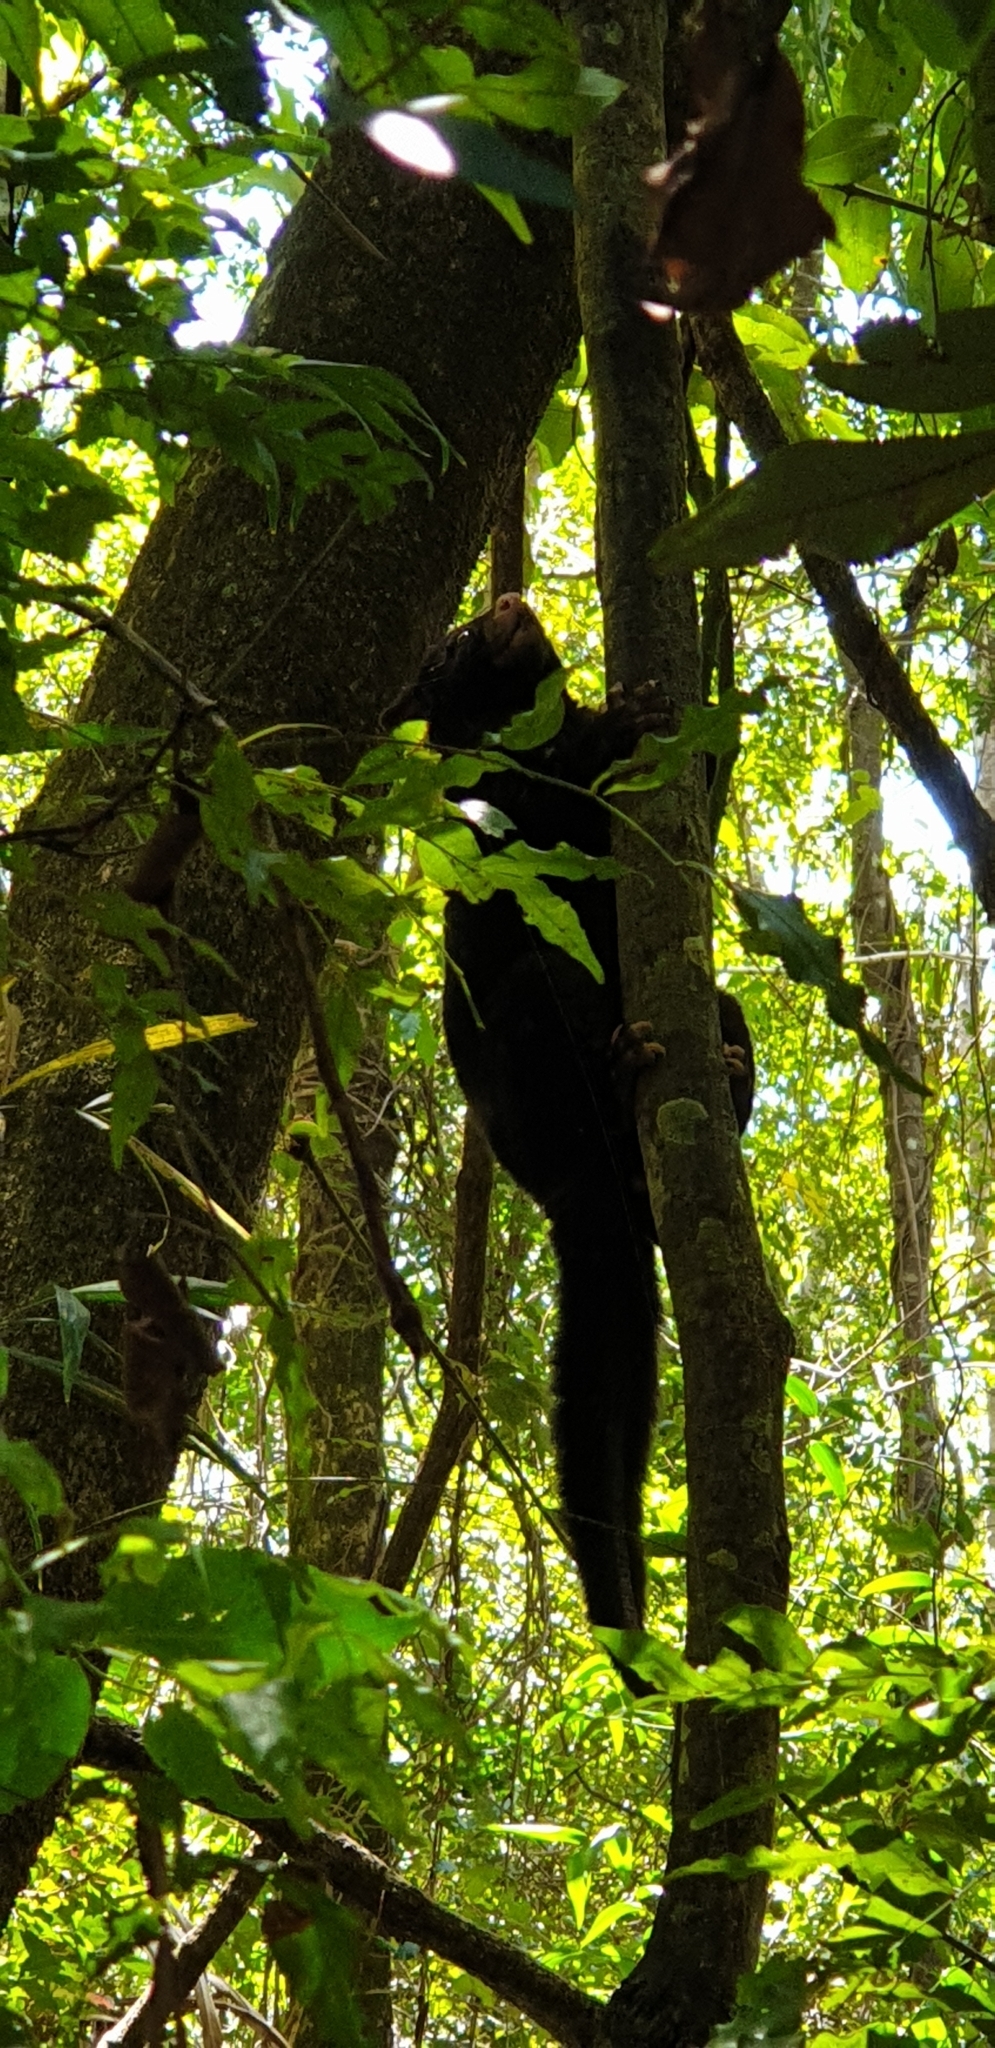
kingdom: Animalia
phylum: Chordata
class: Mammalia
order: Diprotodontia
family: Phalangeridae
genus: Trichosurus
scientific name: Trichosurus caninus
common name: Short-eared possum
